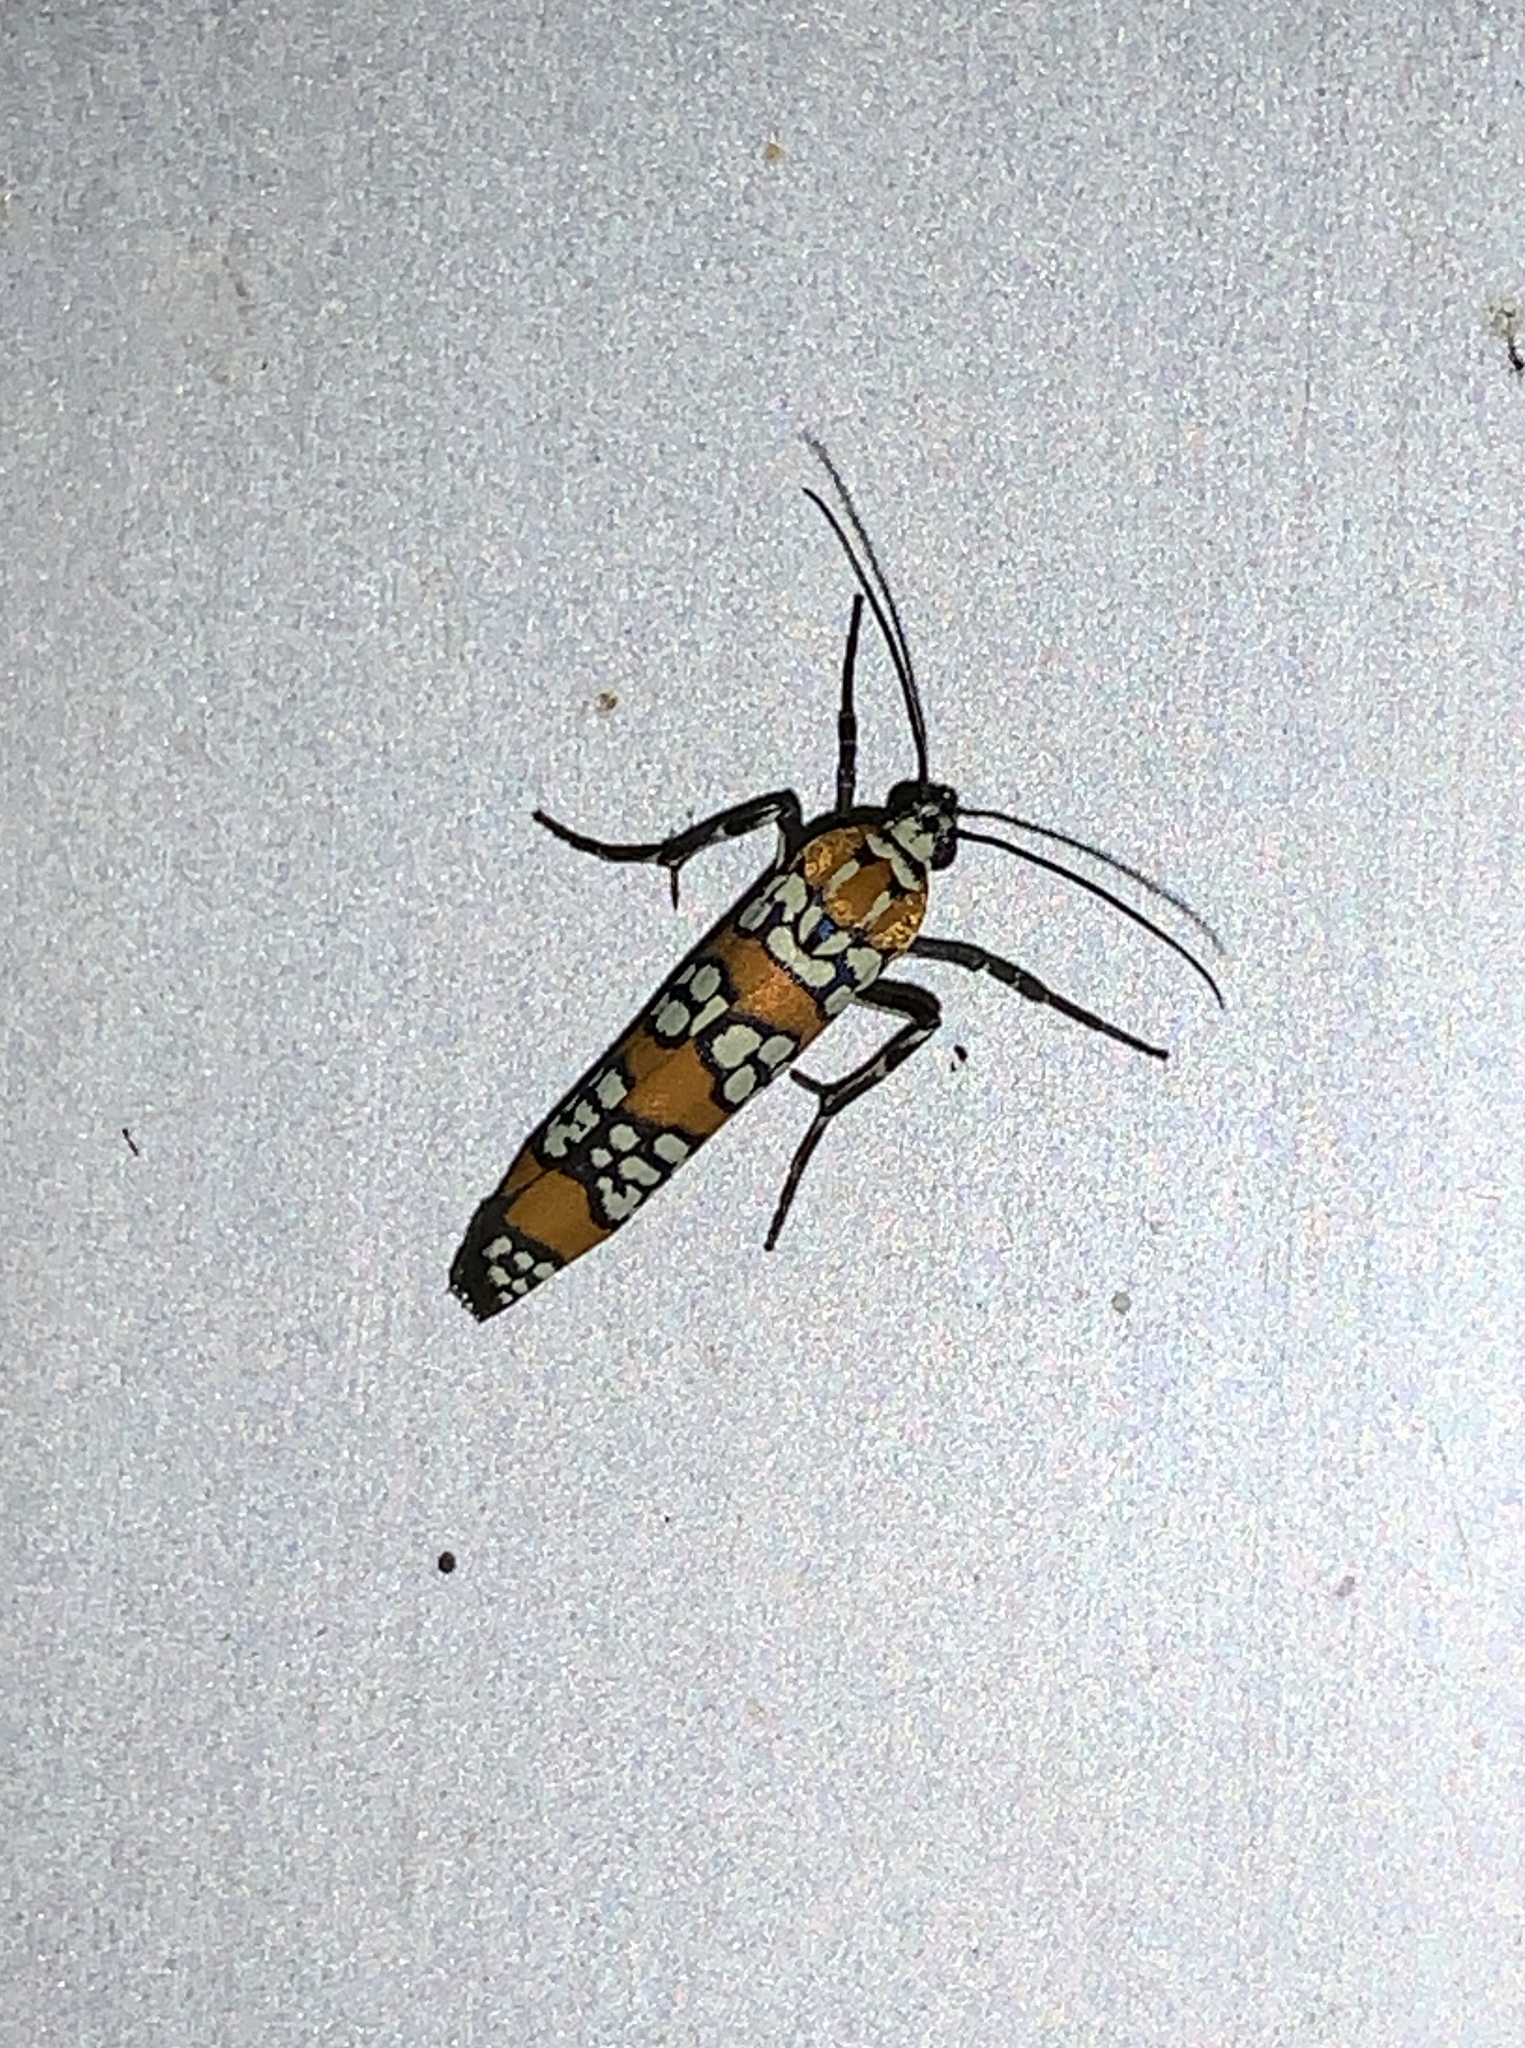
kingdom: Animalia
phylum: Arthropoda
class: Insecta
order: Lepidoptera
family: Attevidae
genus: Atteva
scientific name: Atteva punctella
